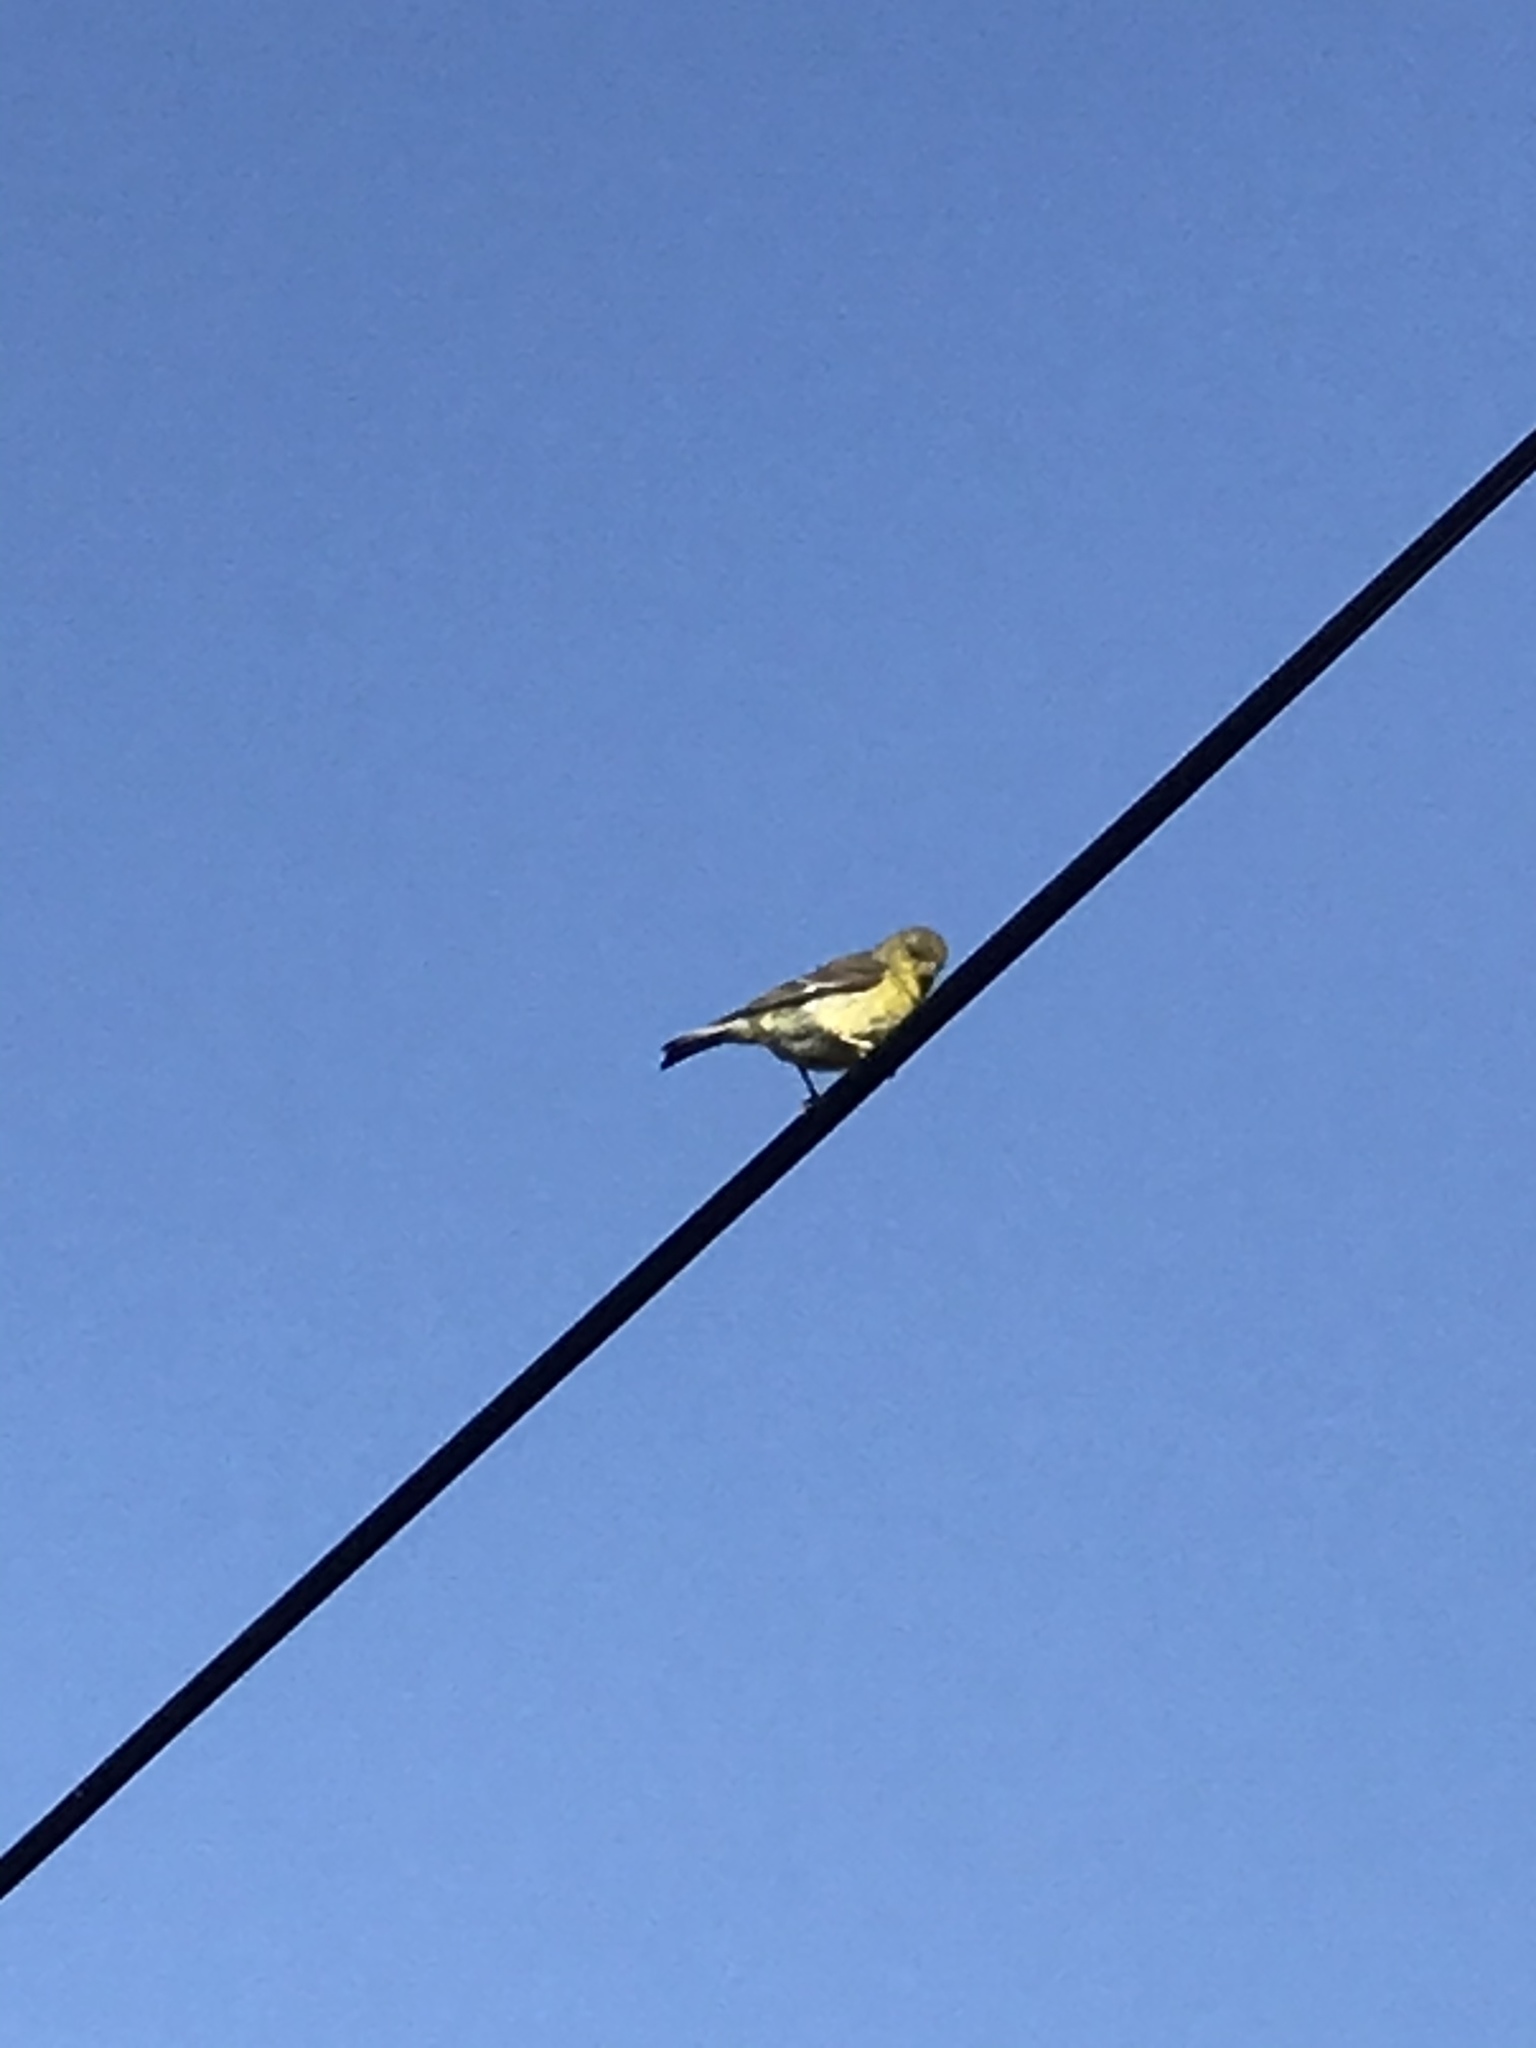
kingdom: Animalia
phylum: Chordata
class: Aves
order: Passeriformes
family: Fringillidae
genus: Spinus
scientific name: Spinus psaltria
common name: Lesser goldfinch
